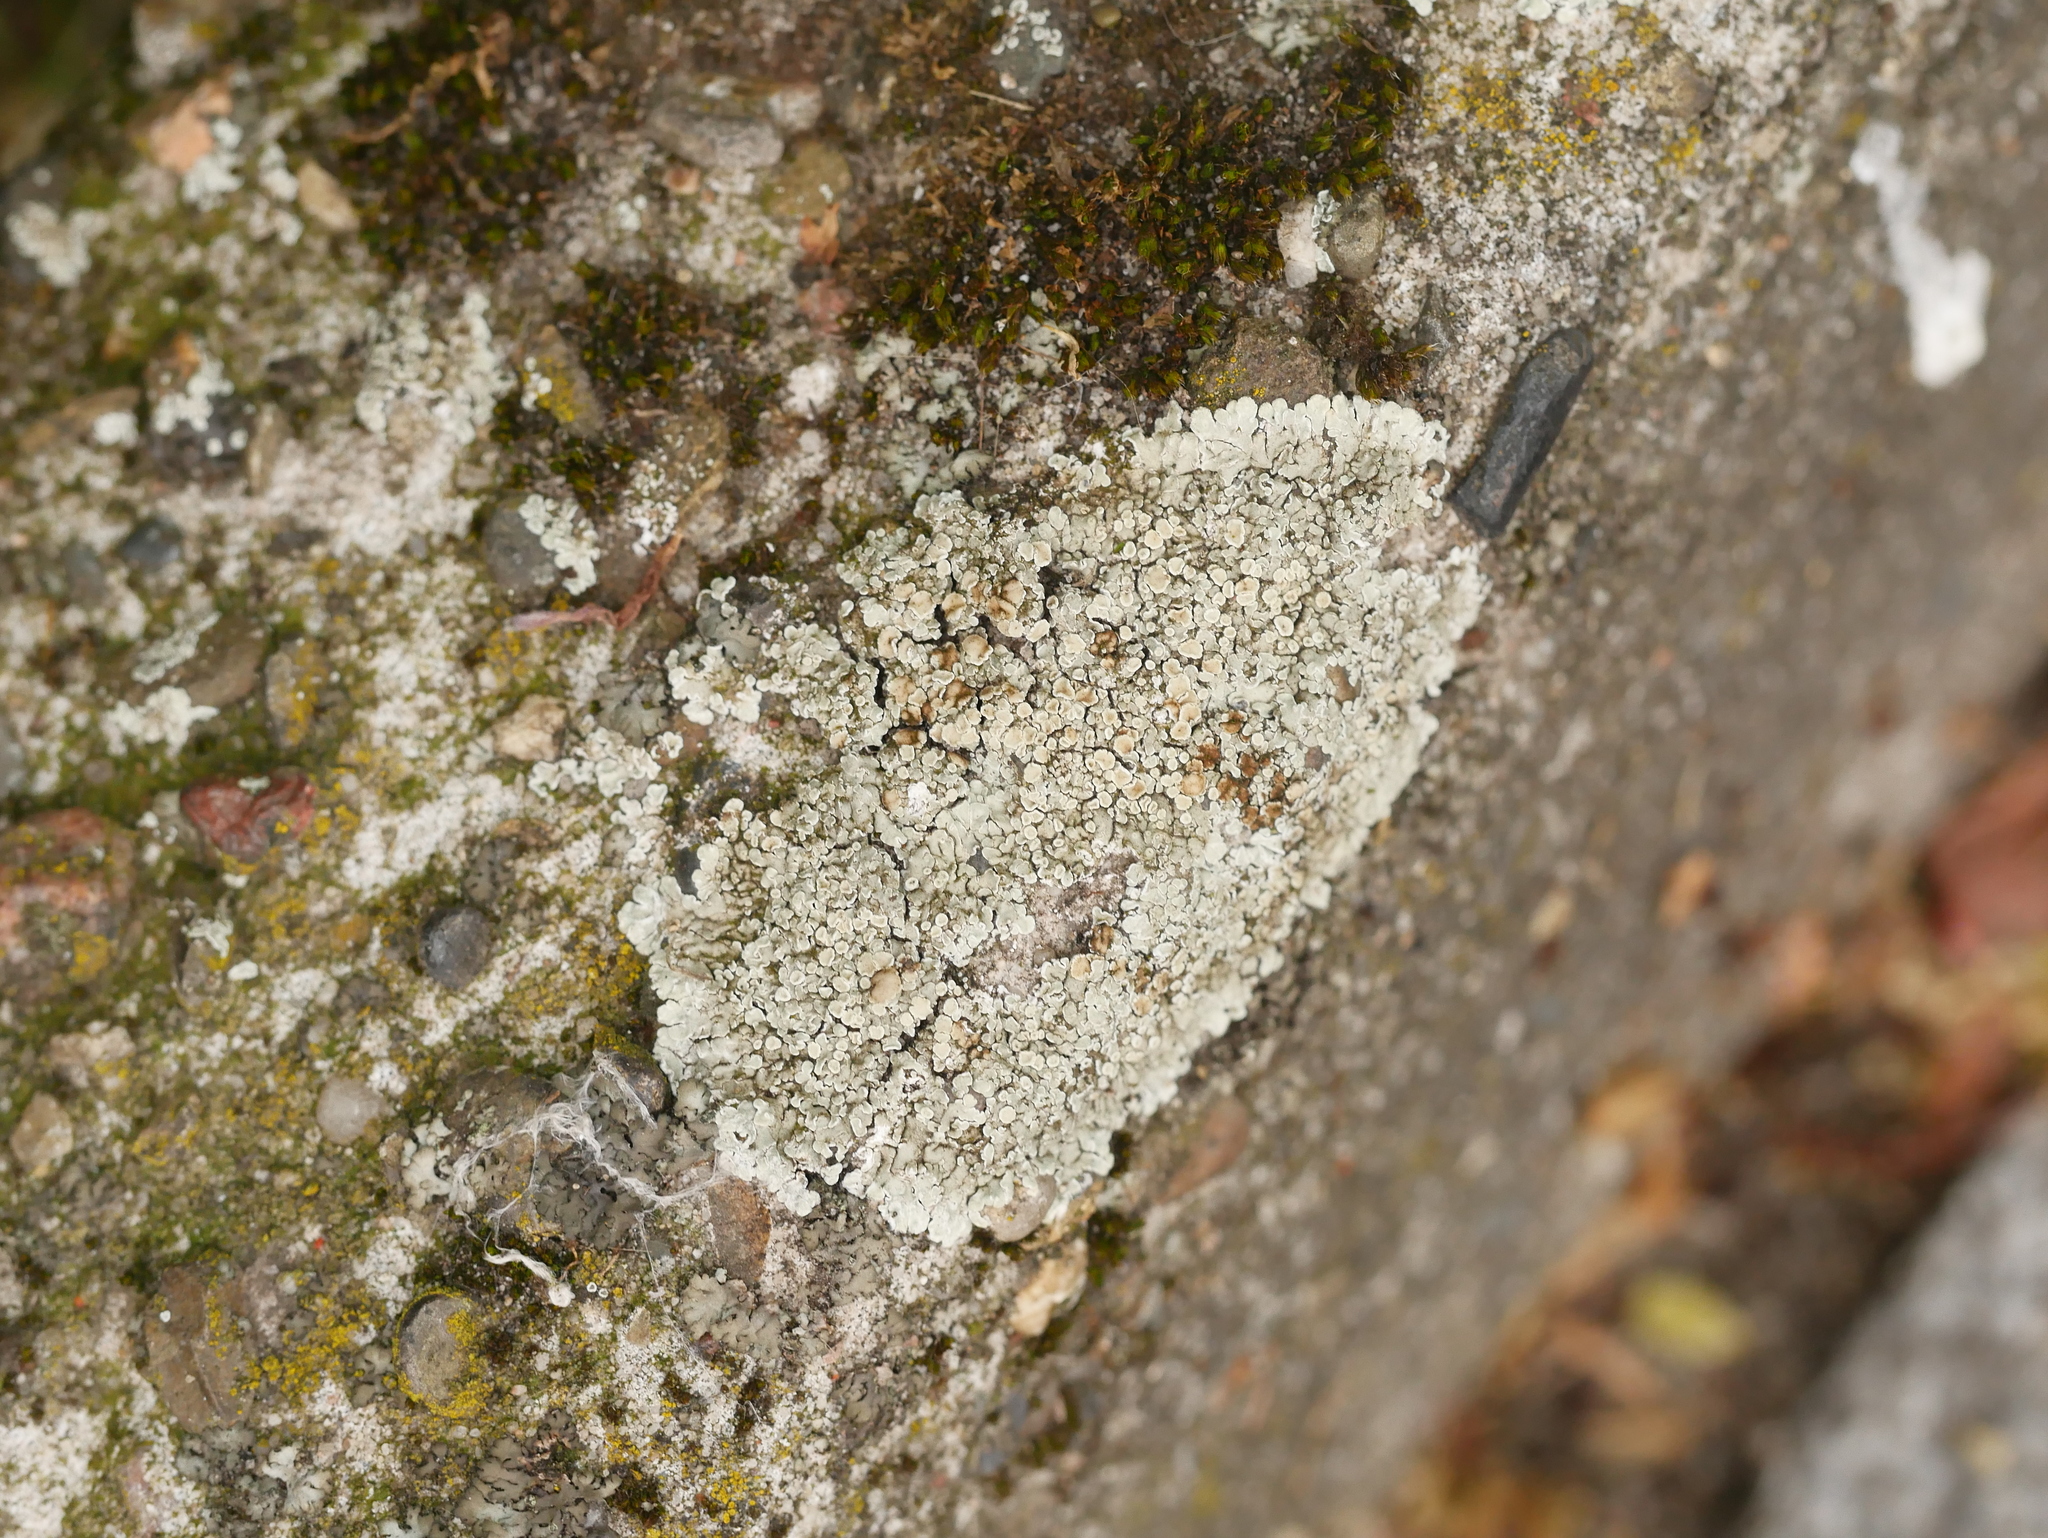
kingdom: Fungi
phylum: Ascomycota
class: Lecanoromycetes
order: Lecanorales
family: Lecanoraceae
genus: Protoparmeliopsis
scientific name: Protoparmeliopsis muralis
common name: Stonewall rim lichen
